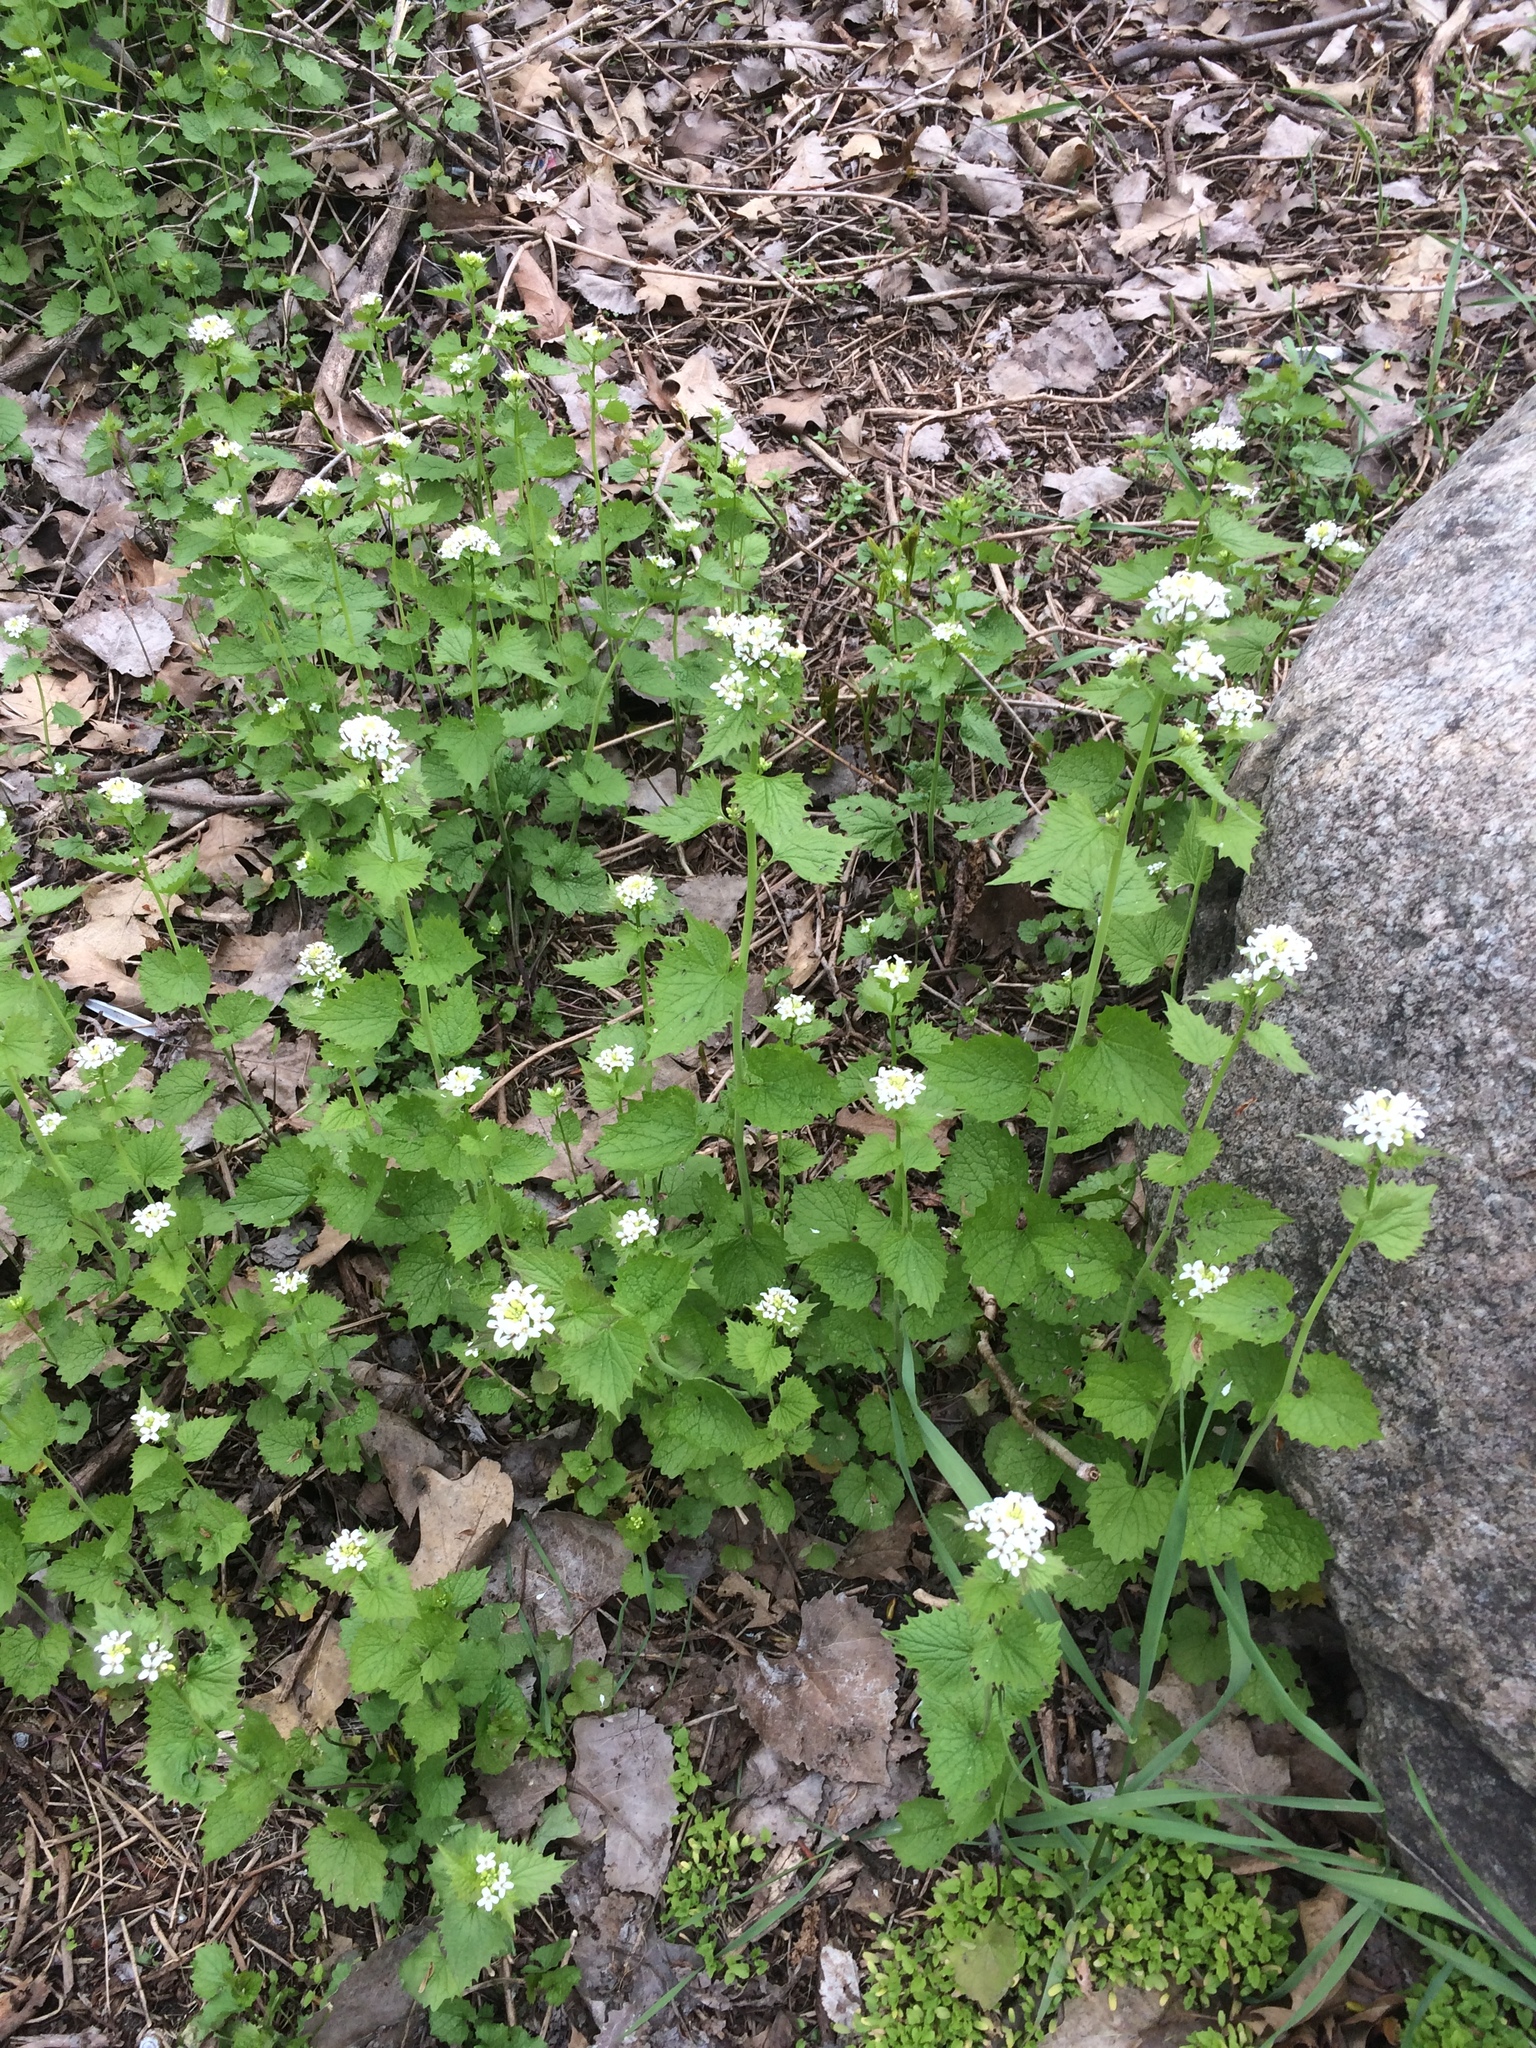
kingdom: Plantae
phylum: Tracheophyta
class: Magnoliopsida
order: Brassicales
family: Brassicaceae
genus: Alliaria
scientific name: Alliaria petiolata
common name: Garlic mustard
